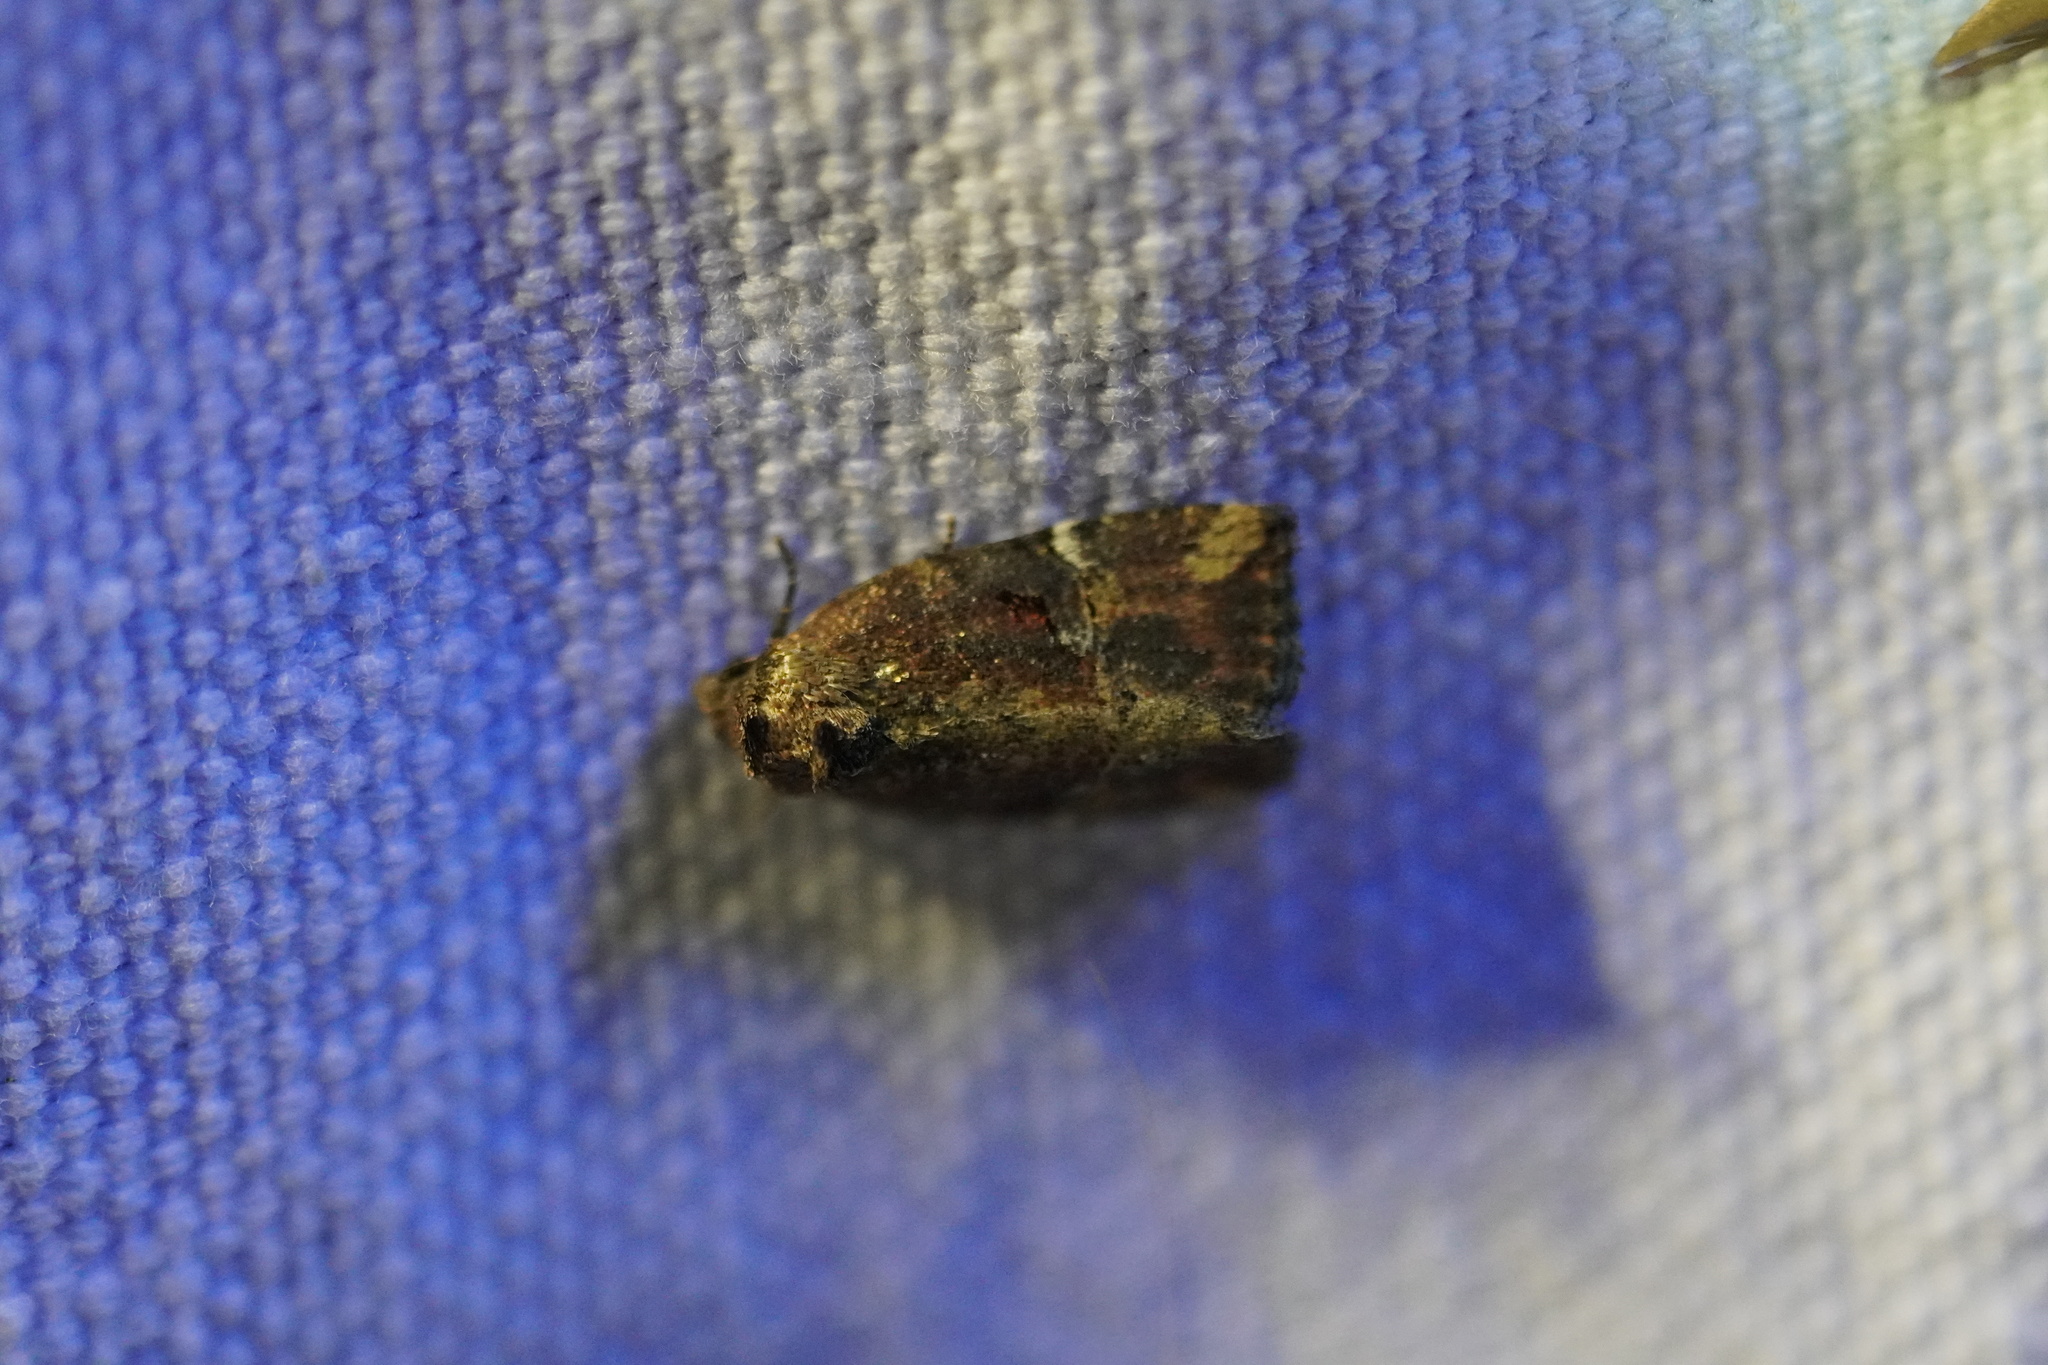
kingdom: Animalia
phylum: Arthropoda
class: Insecta
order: Lepidoptera
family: Noctuidae
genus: Elaphria
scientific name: Elaphria versicolor
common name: Fir harlequin
